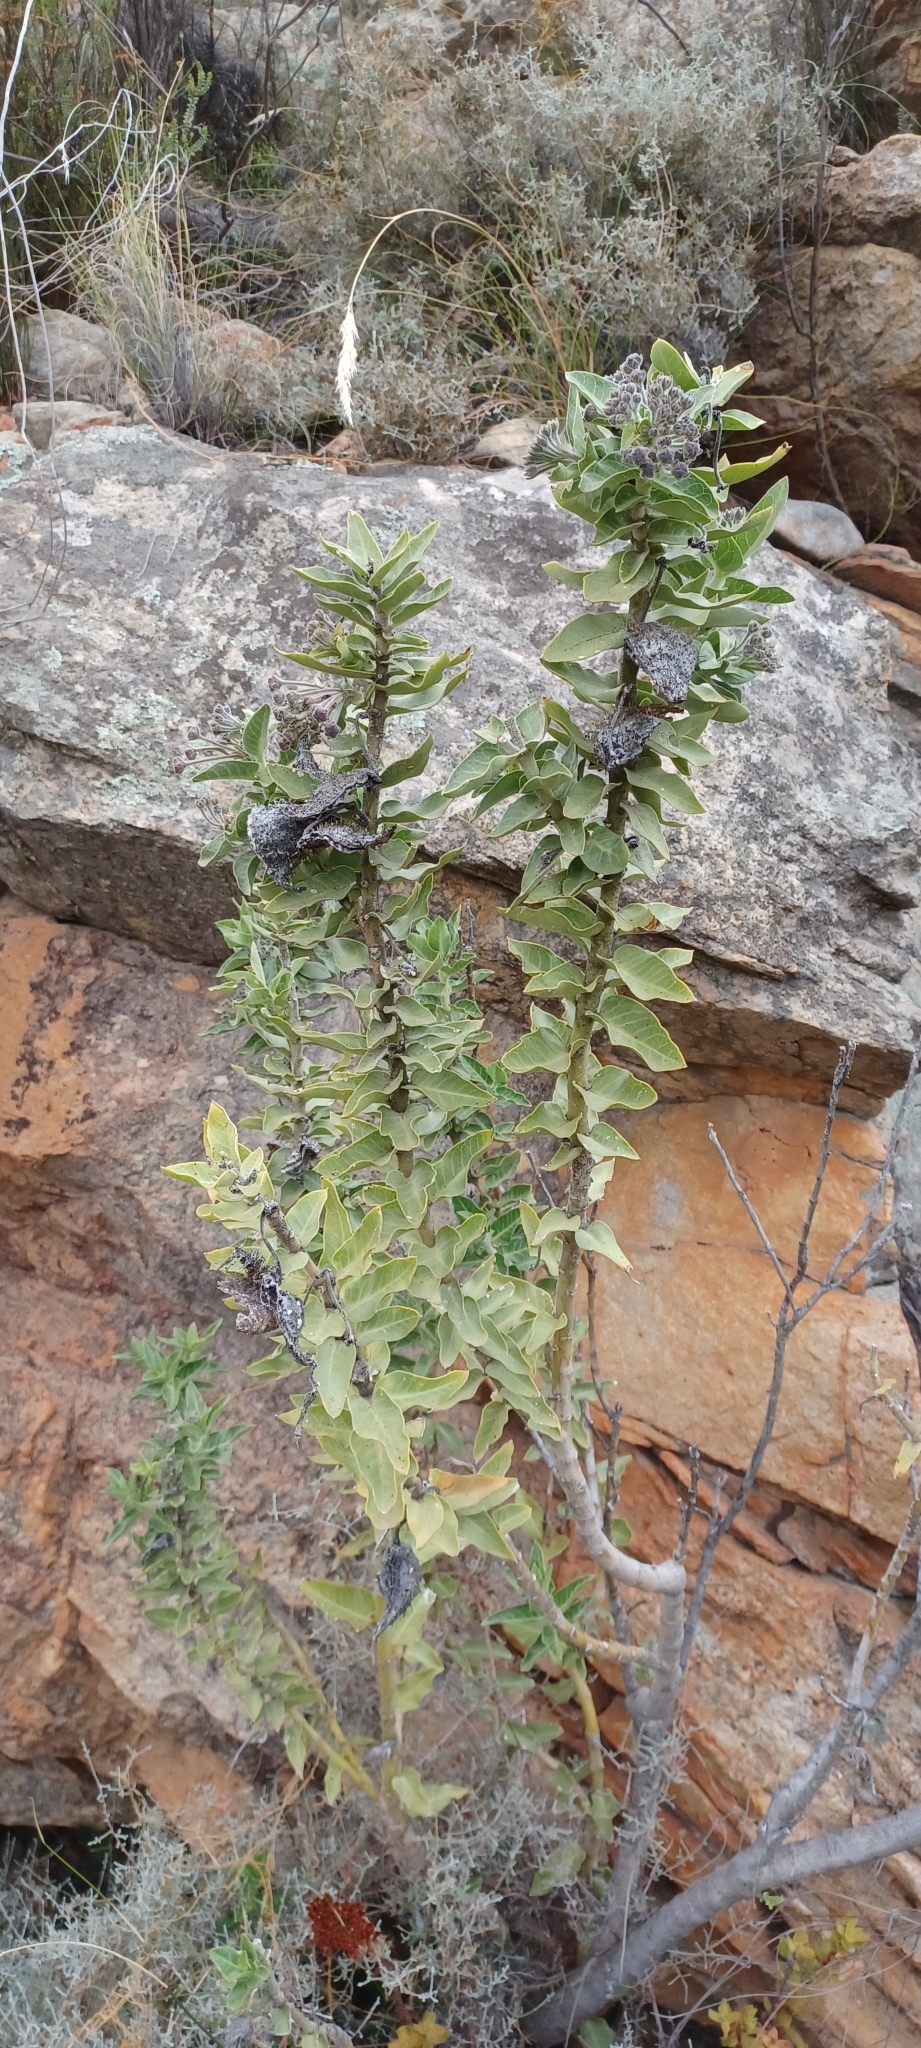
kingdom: Plantae
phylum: Tracheophyta
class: Magnoliopsida
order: Gentianales
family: Apocynaceae
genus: Gomphocarpus
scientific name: Gomphocarpus cancellatus
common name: Wild cotton
